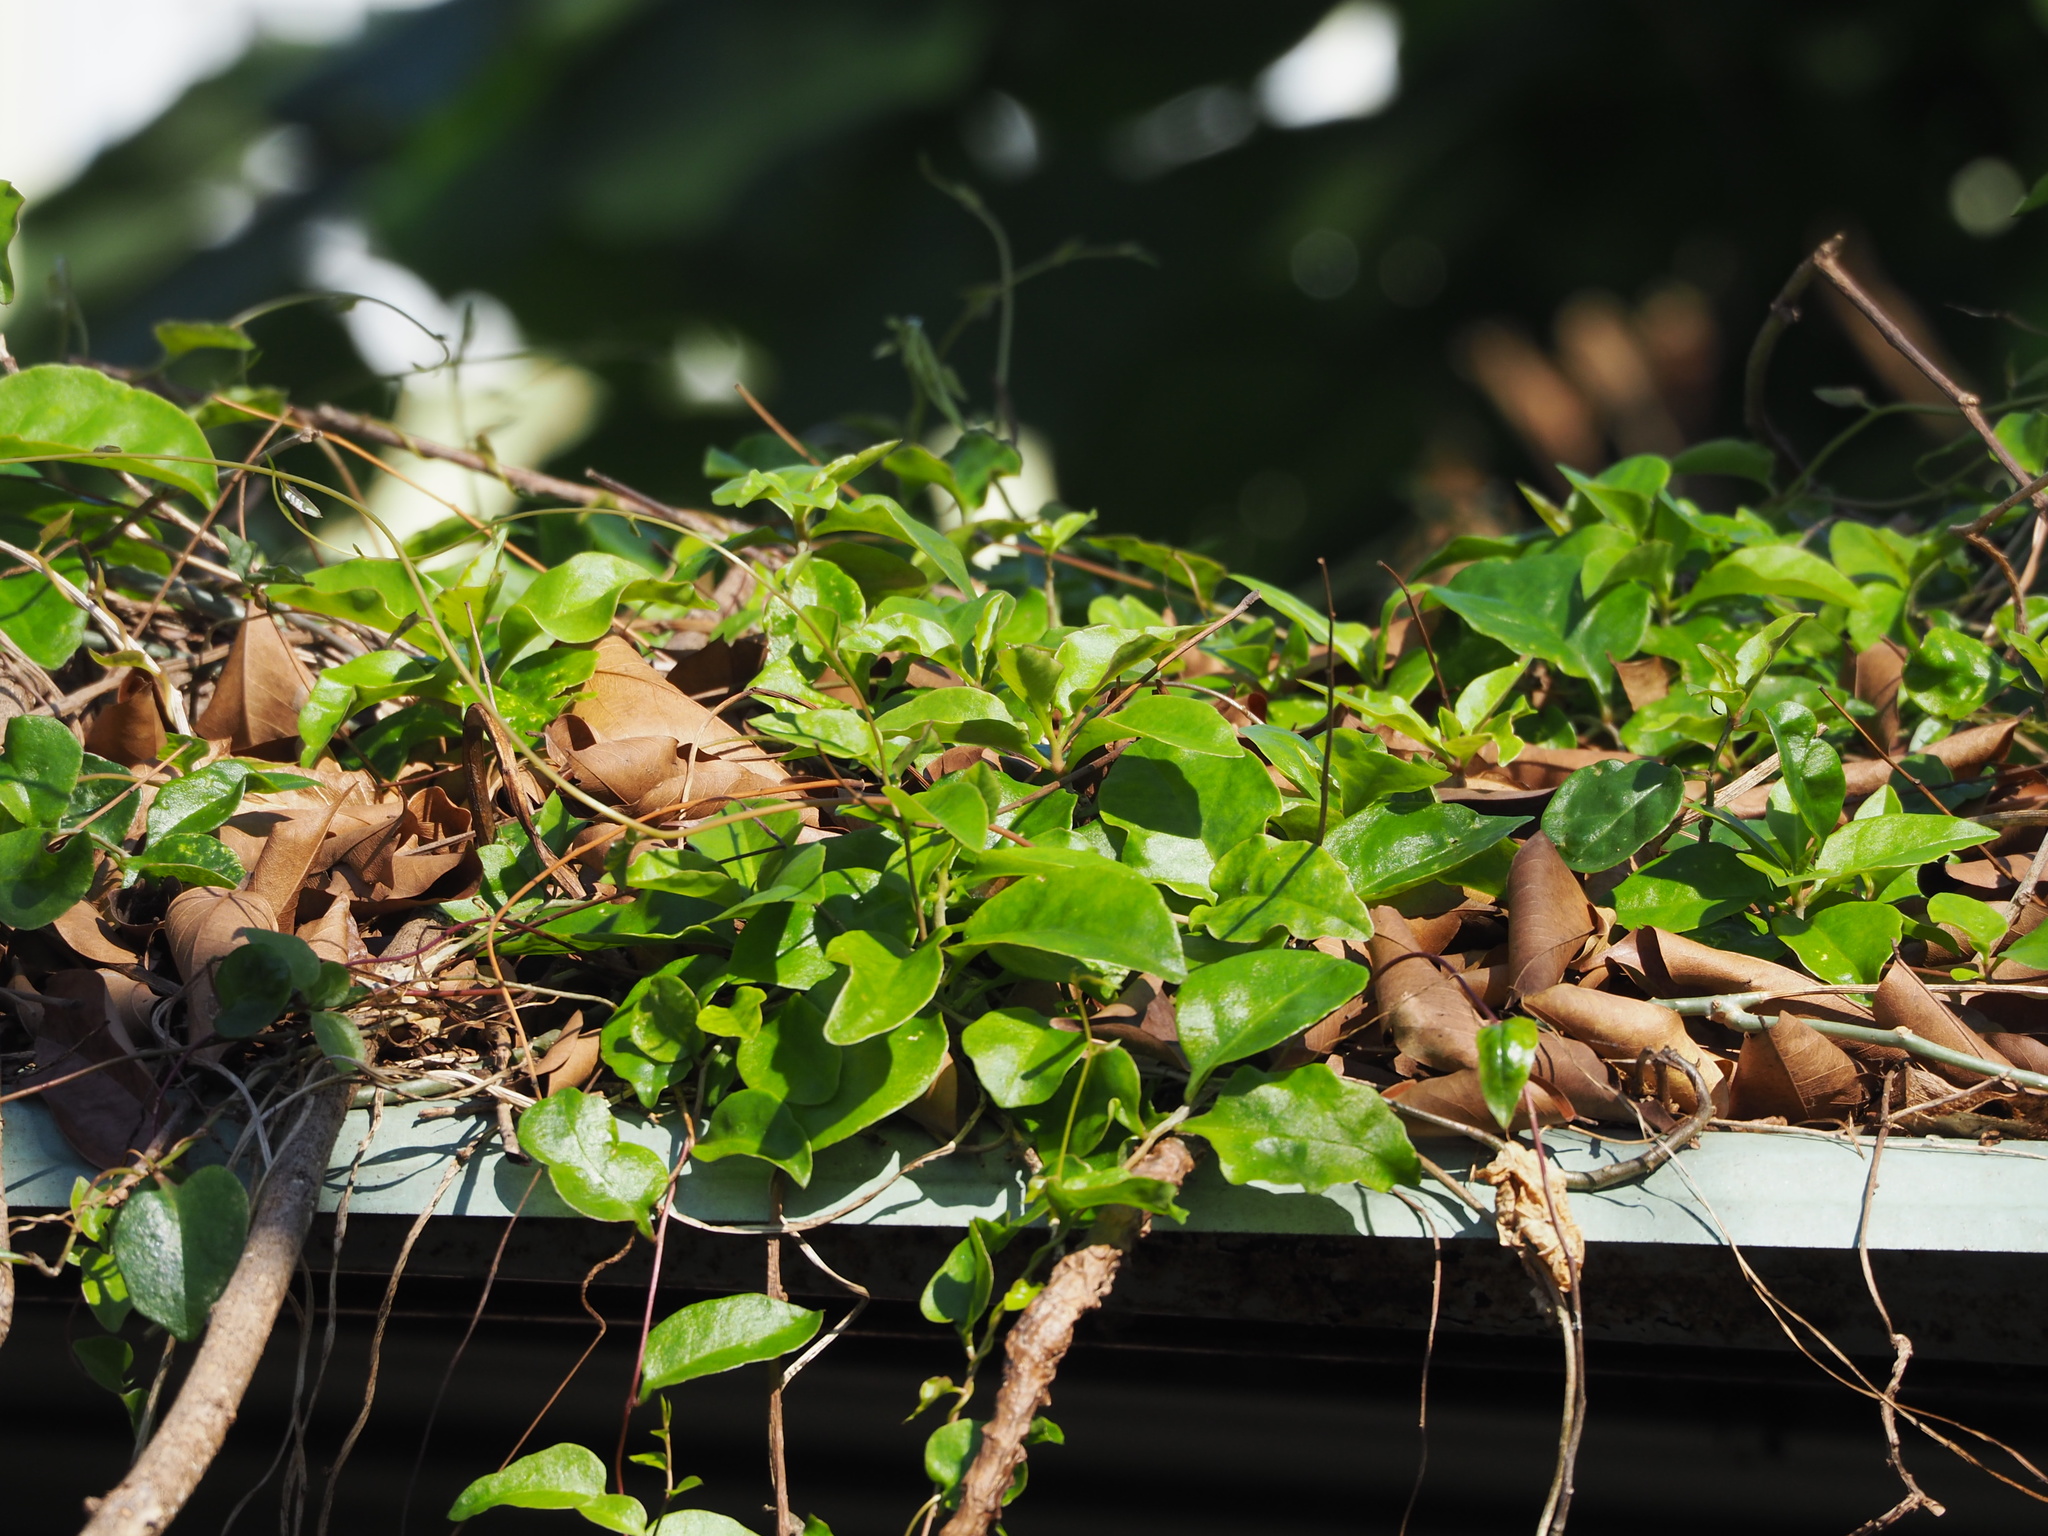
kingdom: Plantae
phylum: Tracheophyta
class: Magnoliopsida
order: Caryophyllales
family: Basellaceae
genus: Anredera
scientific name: Anredera cordifolia
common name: Heartleaf madeiravine
